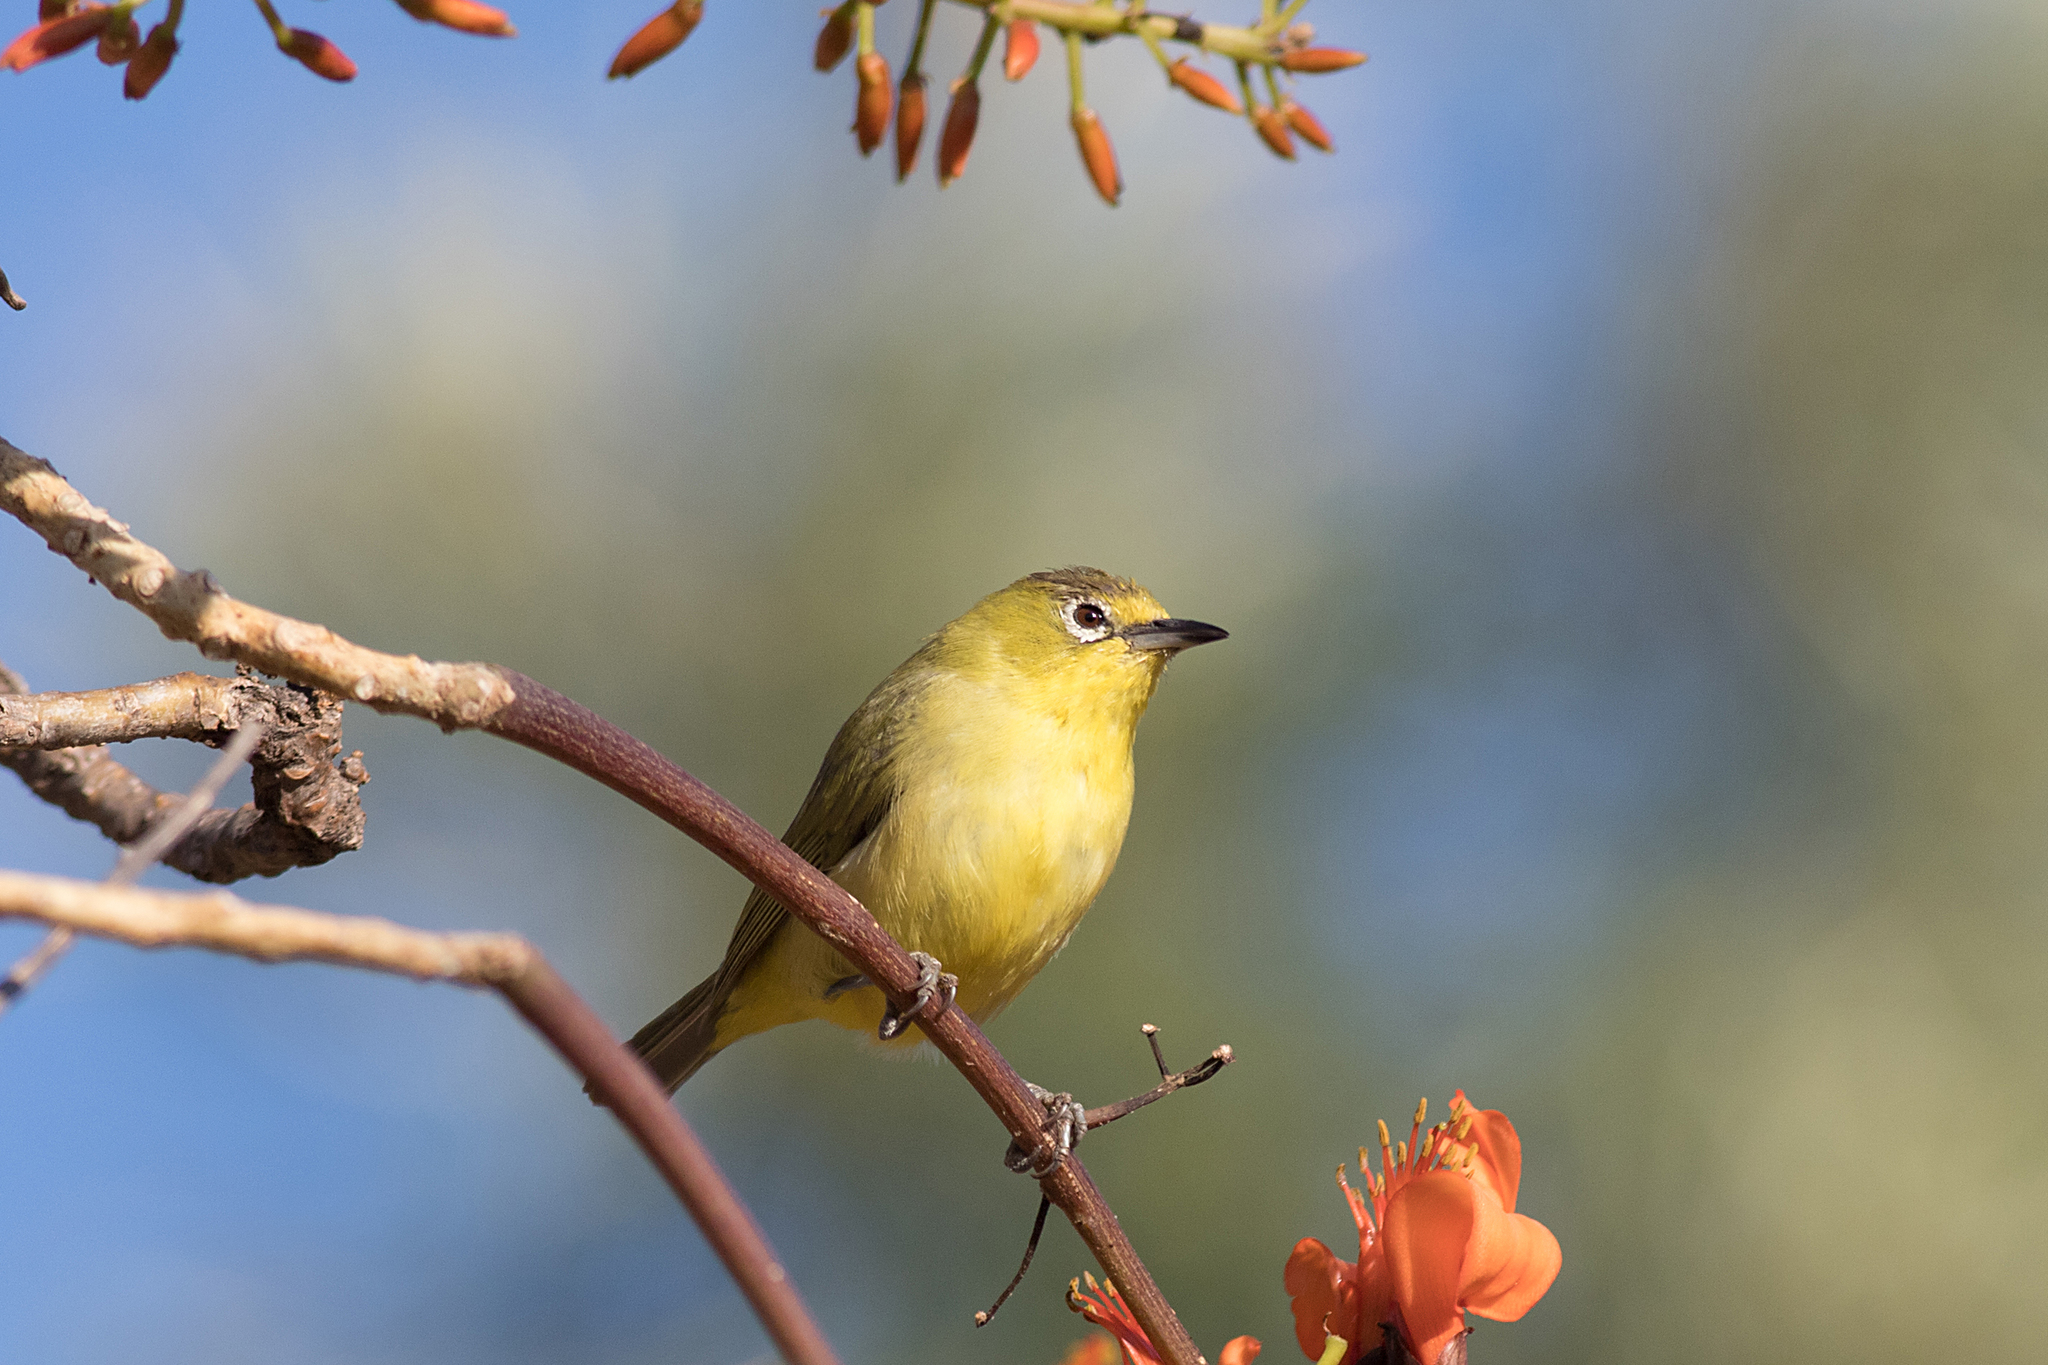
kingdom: Animalia
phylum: Chordata
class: Aves
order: Passeriformes
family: Zosteropidae
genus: Zosterops
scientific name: Zosterops luteus
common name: Canary white-eye
